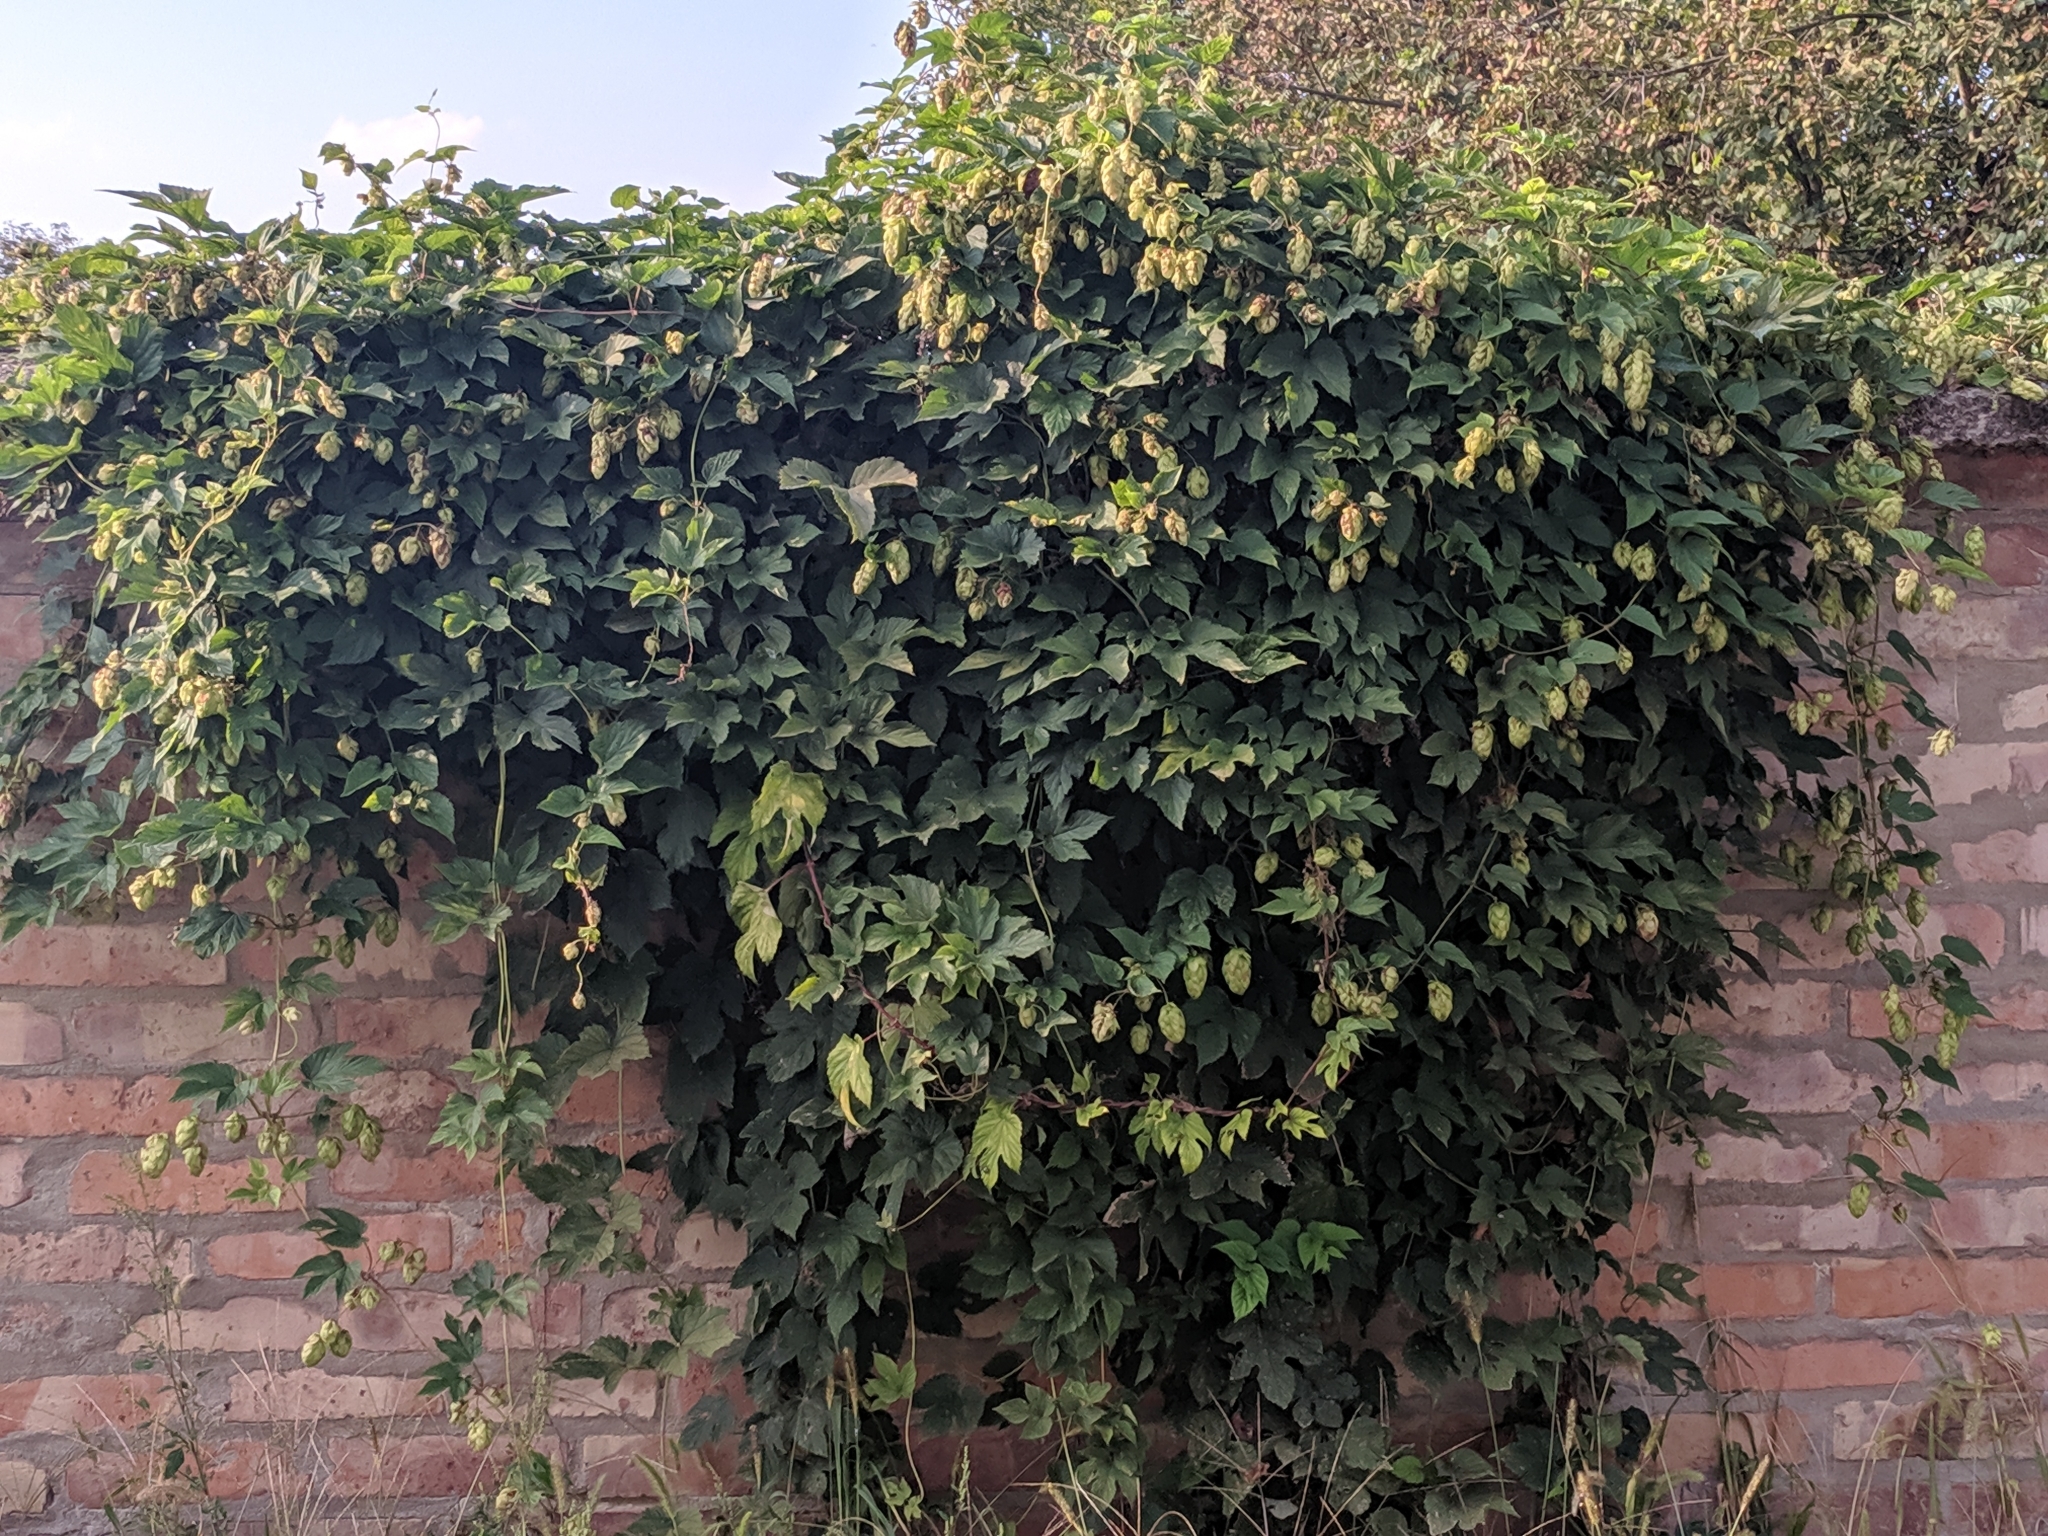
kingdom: Plantae
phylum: Tracheophyta
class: Magnoliopsida
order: Rosales
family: Cannabaceae
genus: Humulus
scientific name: Humulus lupulus
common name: Hop
